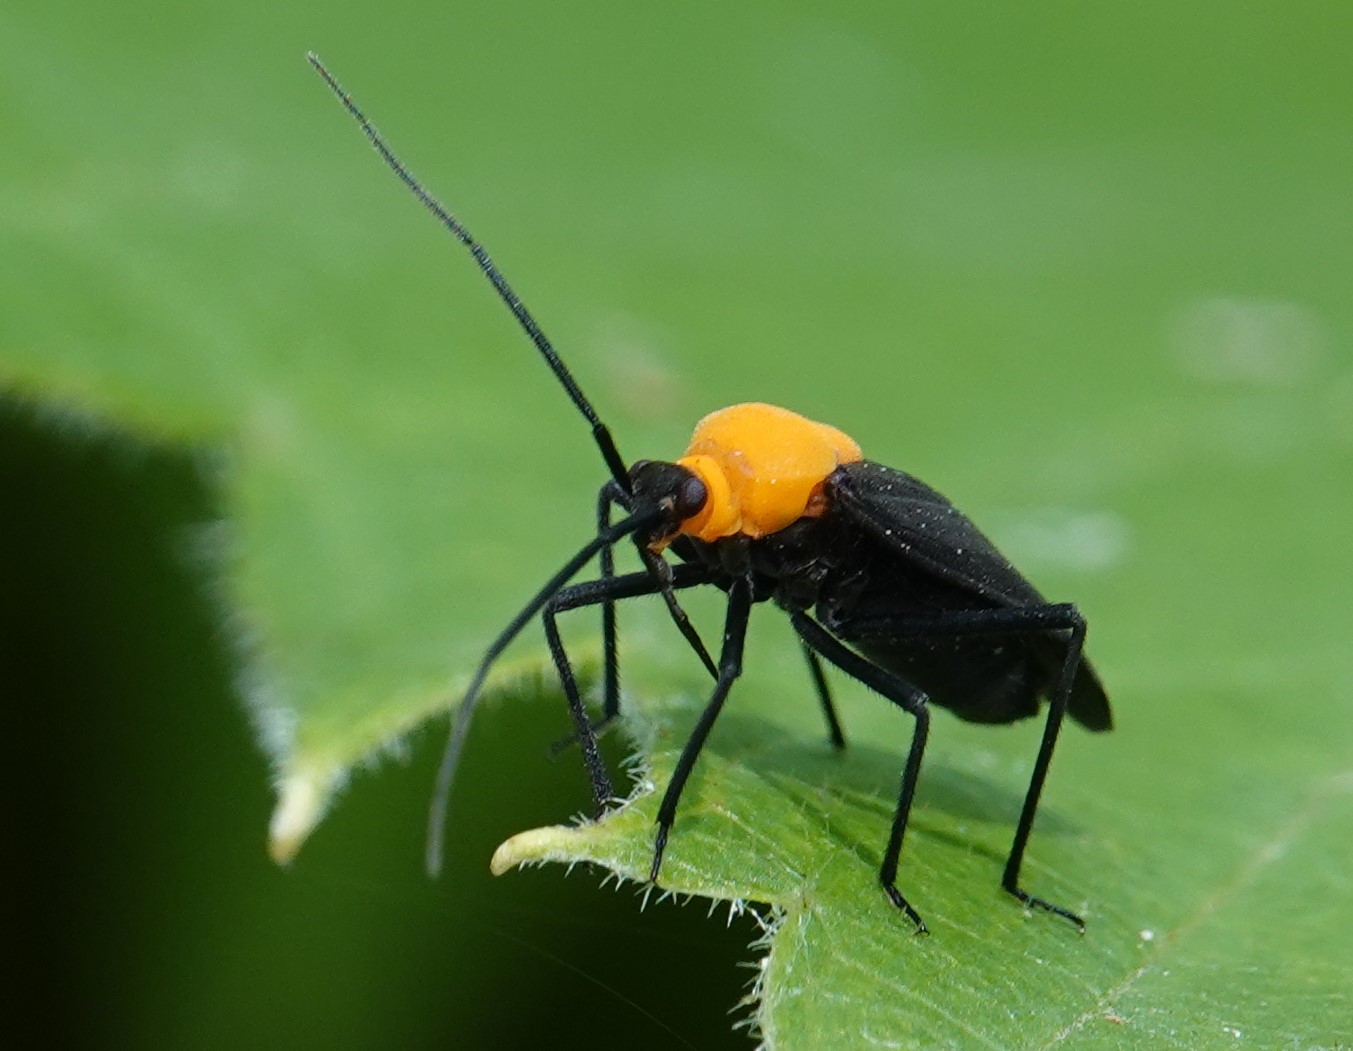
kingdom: Animalia
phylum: Arthropoda
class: Insecta
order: Hemiptera
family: Miridae
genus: Prepops
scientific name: Prepops insitivus
